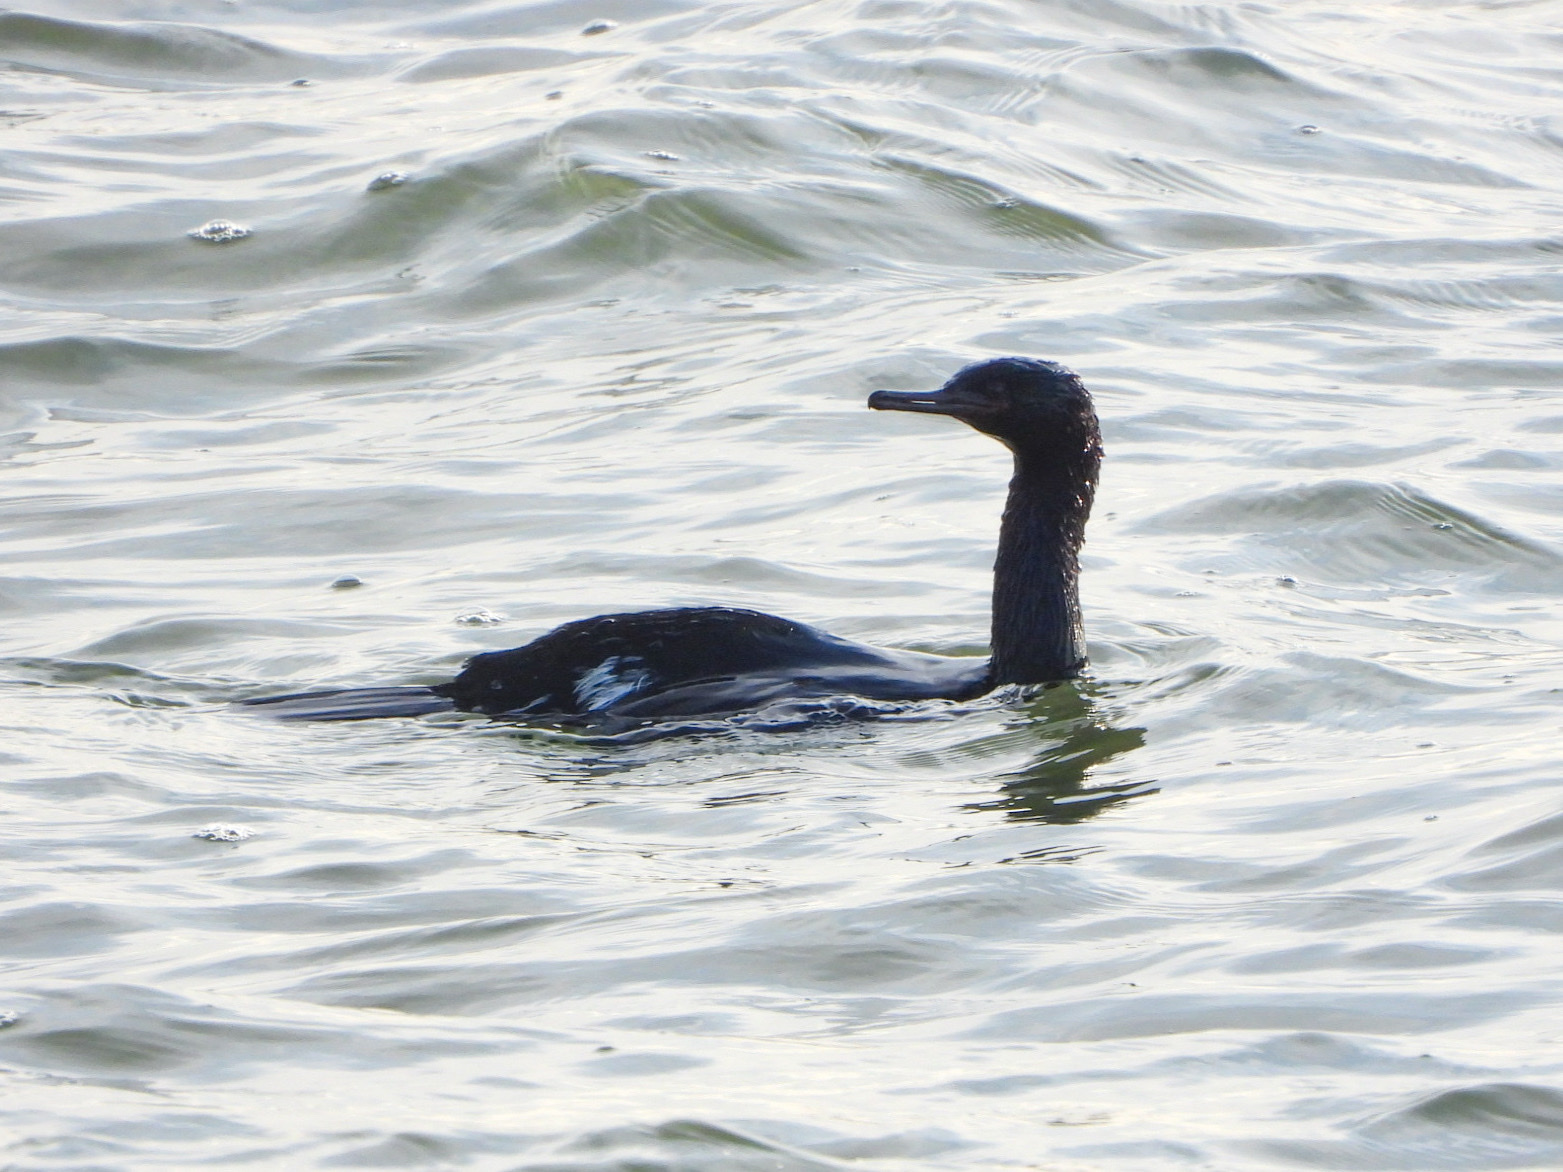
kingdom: Animalia
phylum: Chordata
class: Aves
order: Suliformes
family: Phalacrocoracidae
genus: Phalacrocorax
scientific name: Phalacrocorax pelagicus
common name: Pelagic cormorant
